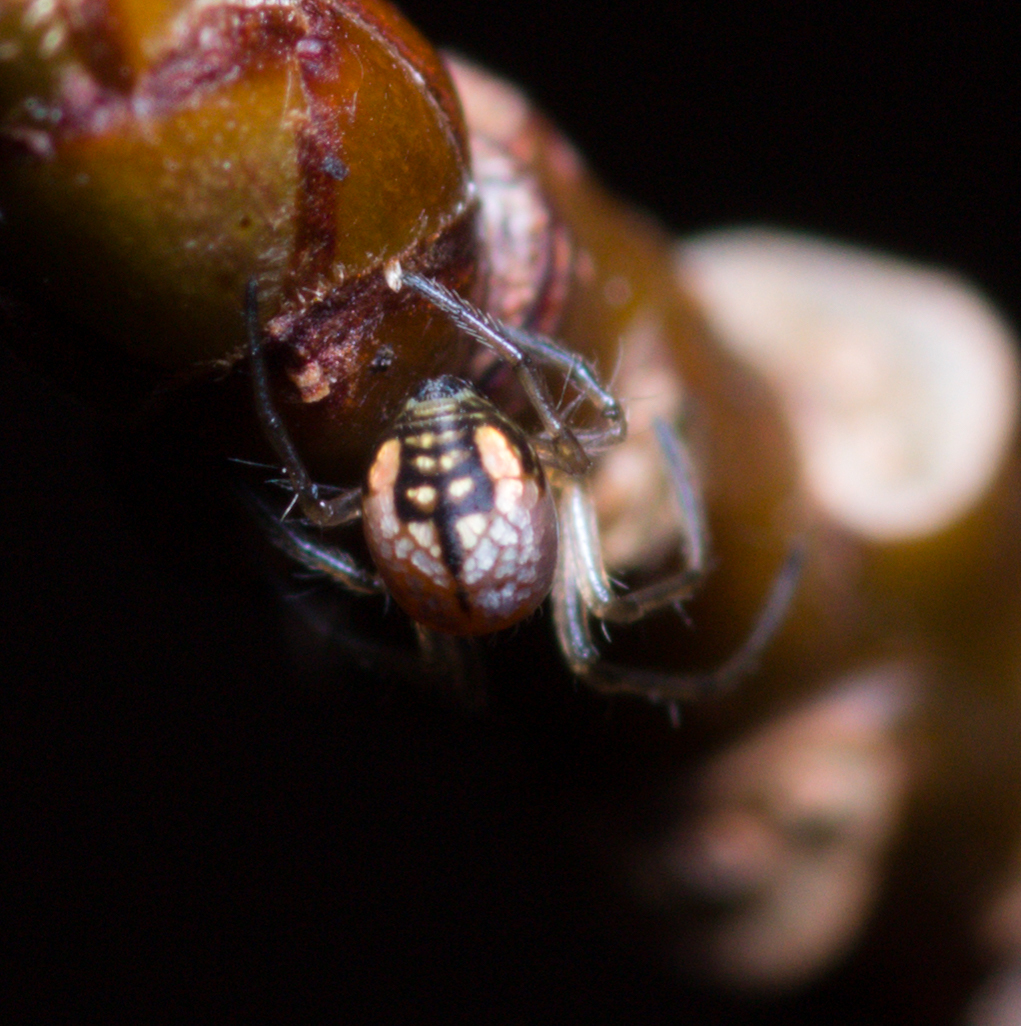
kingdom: Animalia
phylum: Arthropoda
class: Arachnida
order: Araneae
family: Tetragnathidae
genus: Leucauge
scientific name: Leucauge venusta
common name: Longjawed orb weavers
